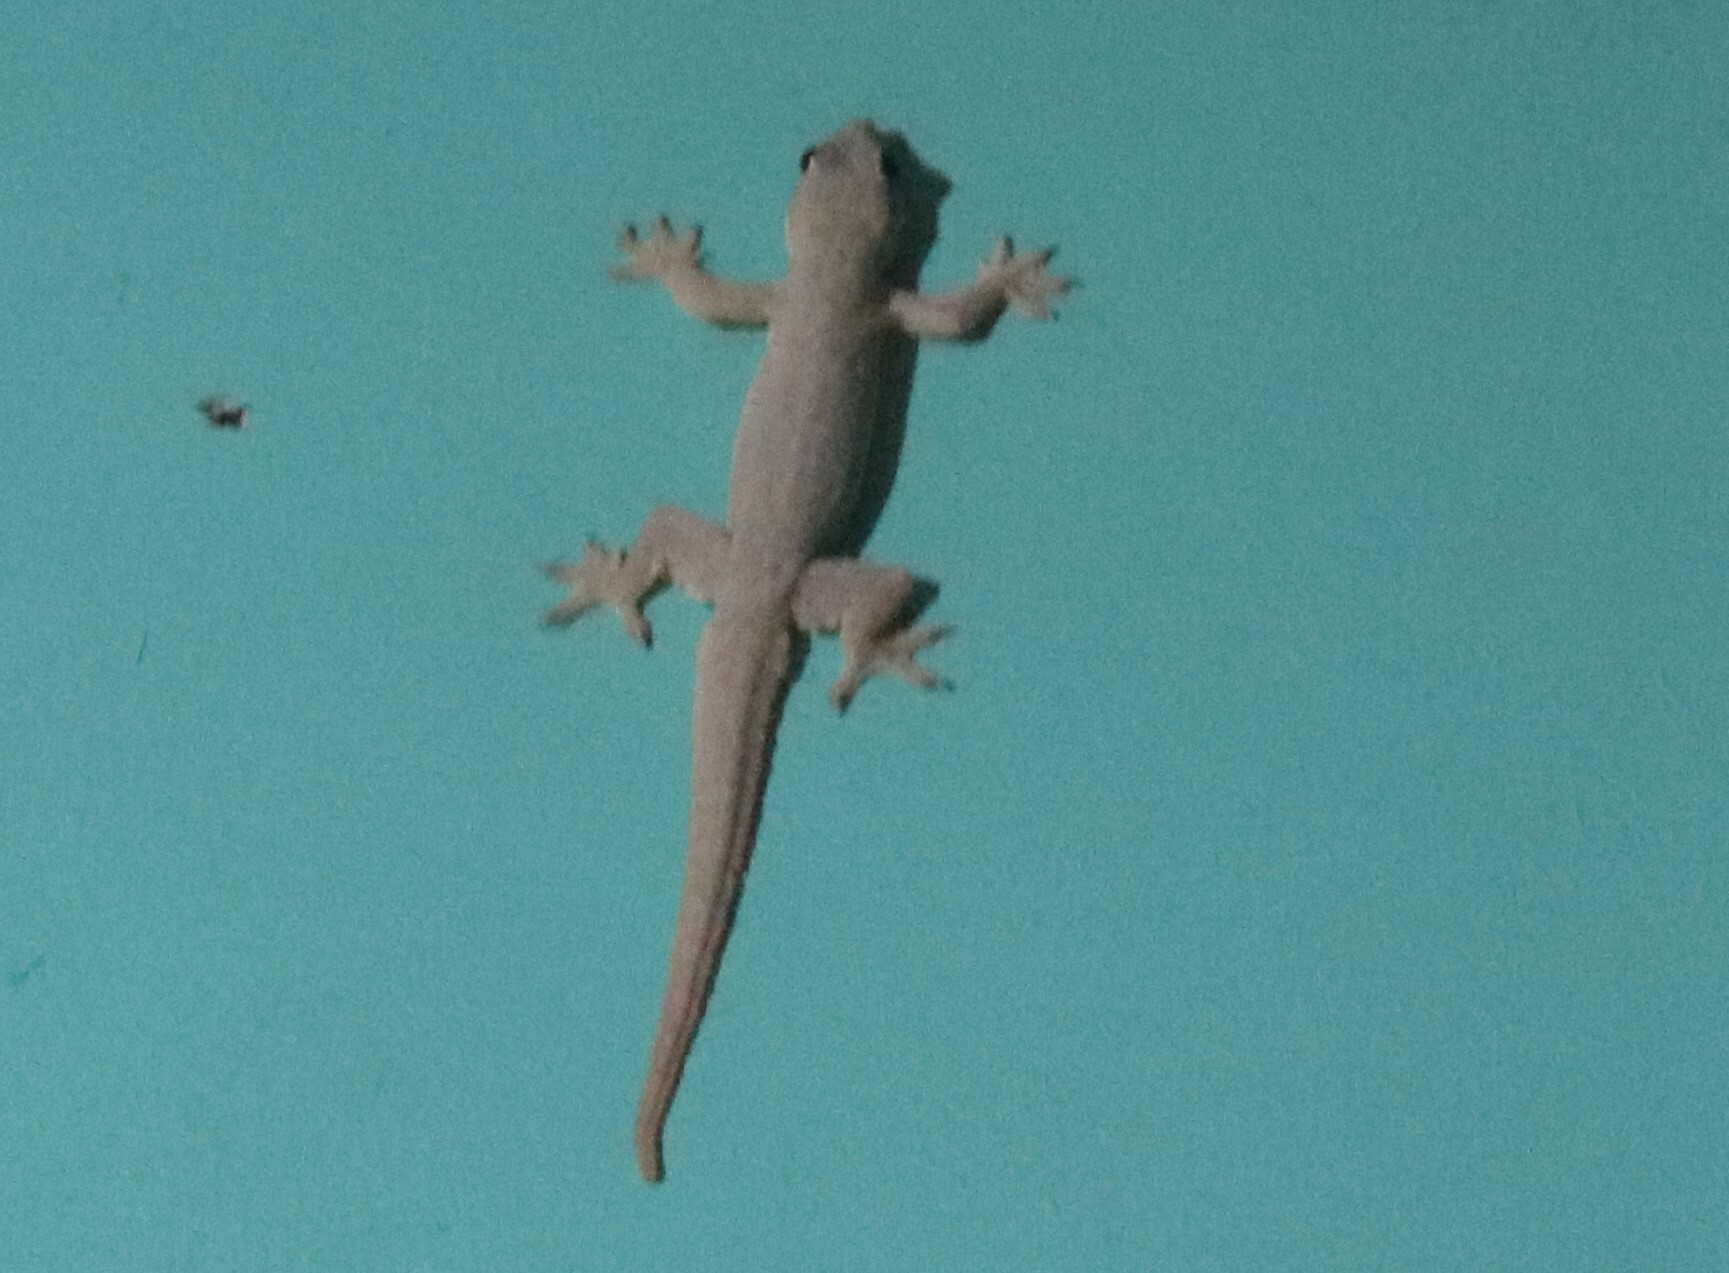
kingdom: Animalia
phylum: Chordata
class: Squamata
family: Gekkonidae
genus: Hemidactylus
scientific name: Hemidactylus platyurus
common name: Flat-tailed house gecko
